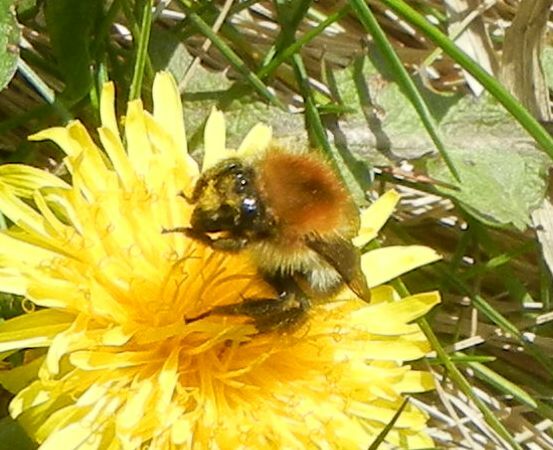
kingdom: Animalia
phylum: Arthropoda
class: Insecta
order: Hymenoptera
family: Apidae
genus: Bombus
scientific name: Bombus pascuorum
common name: Common carder bee
